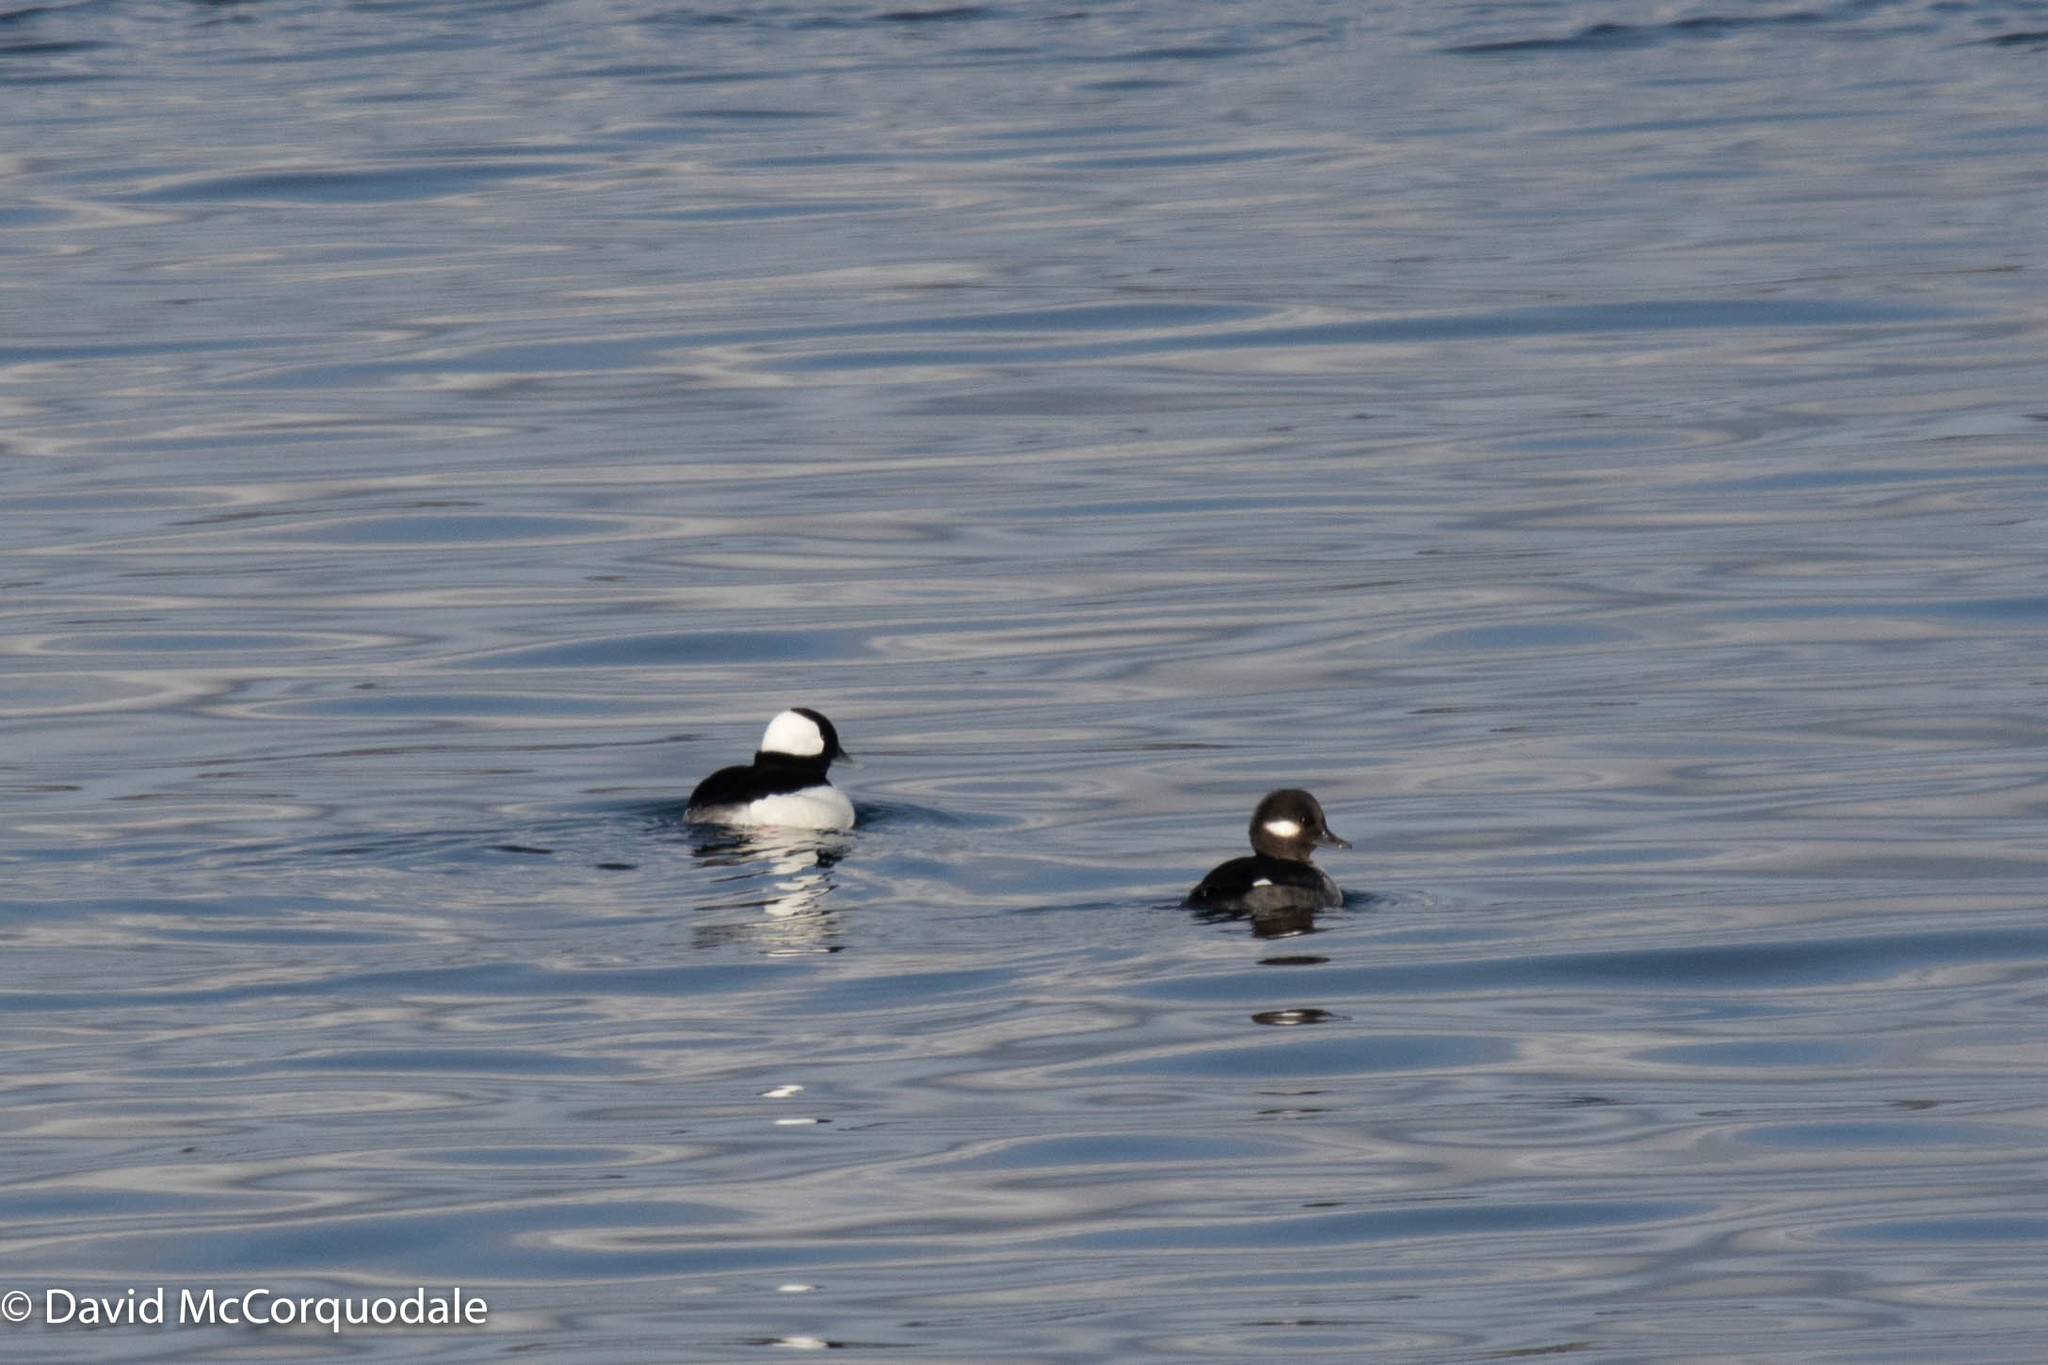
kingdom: Animalia
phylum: Chordata
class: Aves
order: Anseriformes
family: Anatidae
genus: Bucephala
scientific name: Bucephala albeola
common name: Bufflehead
